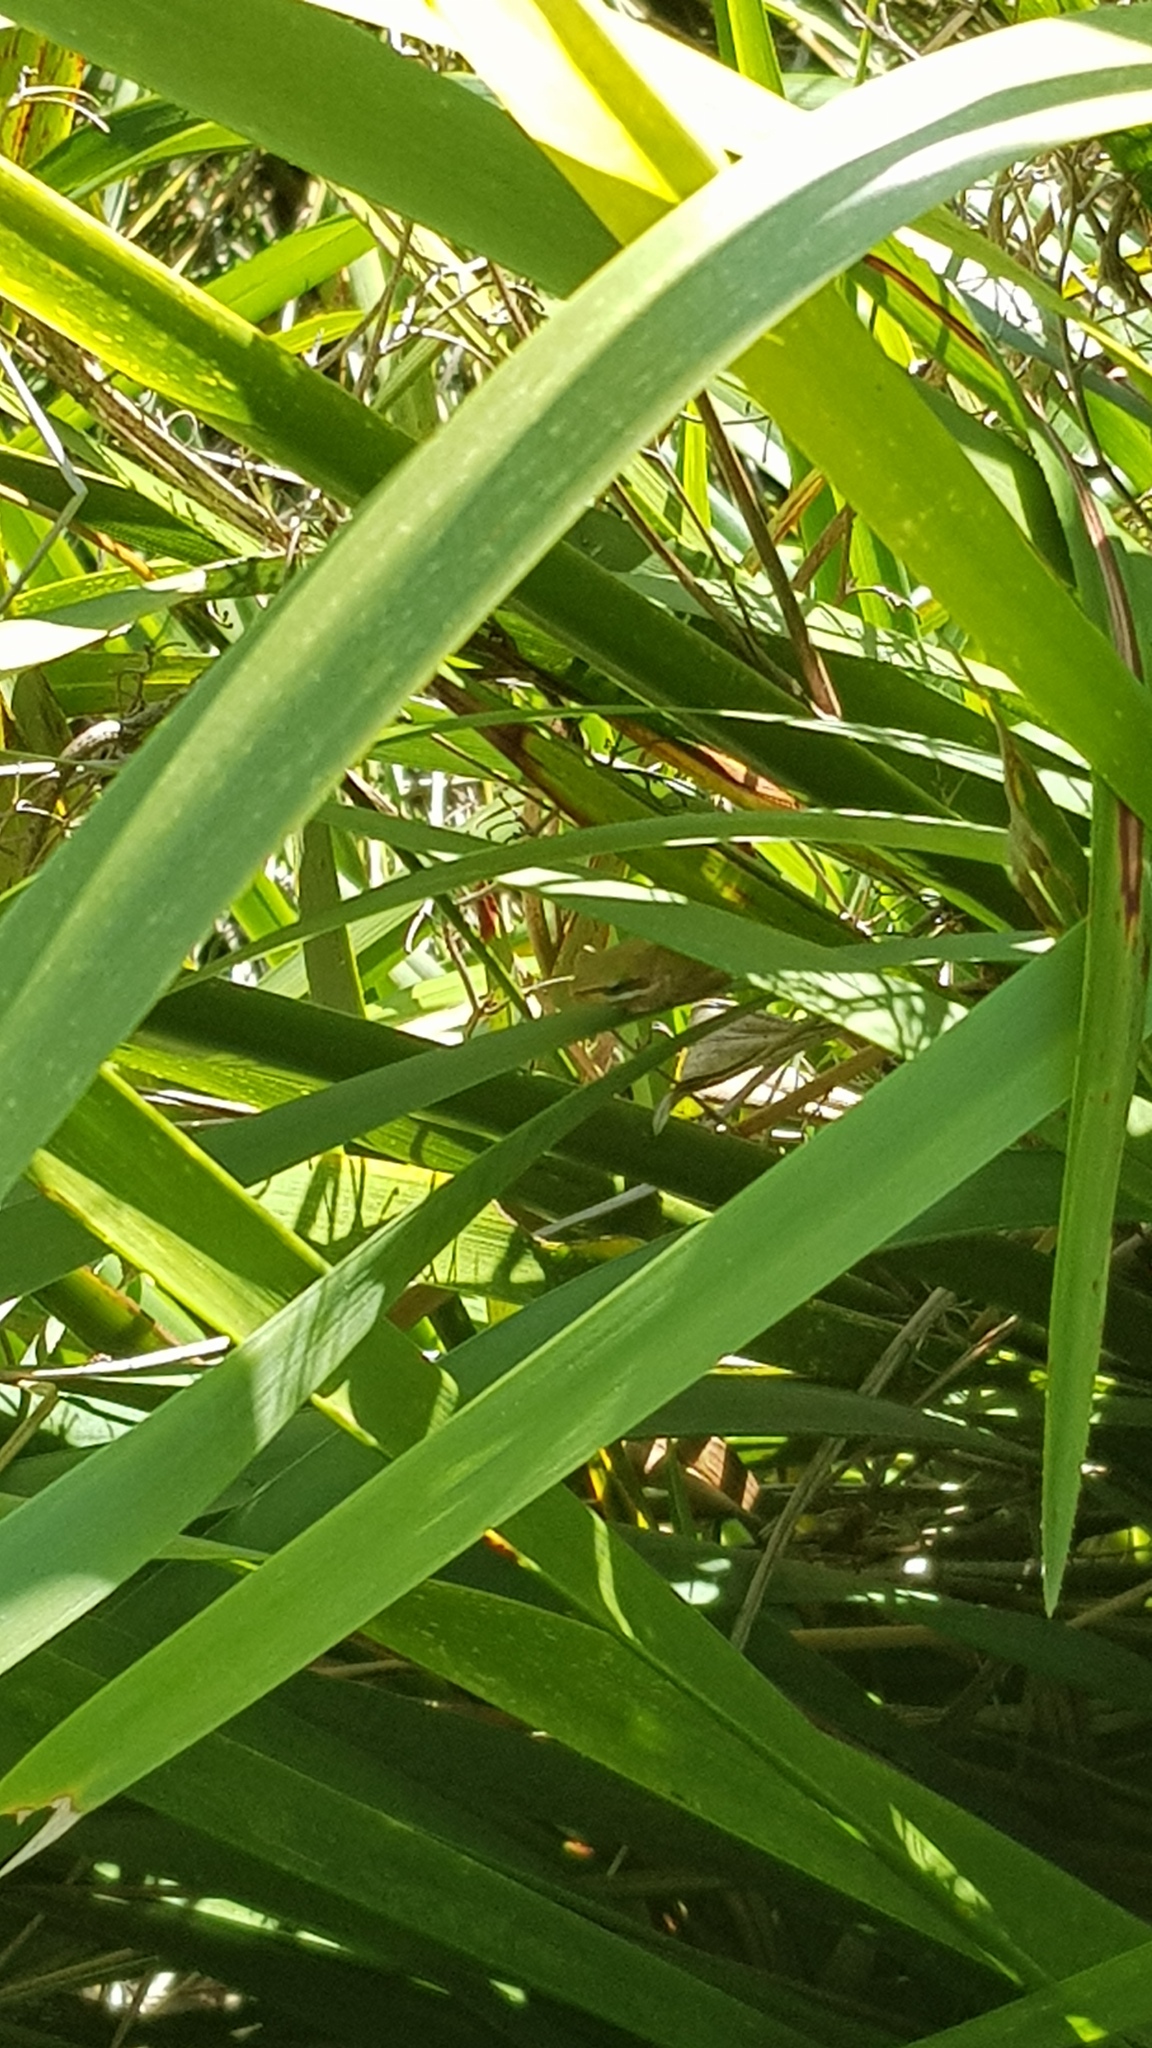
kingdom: Animalia
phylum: Chordata
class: Amphibia
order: Anura
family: Pelodryadidae
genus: Litoria
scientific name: Litoria fallax
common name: Eastern dwarf treefrog
